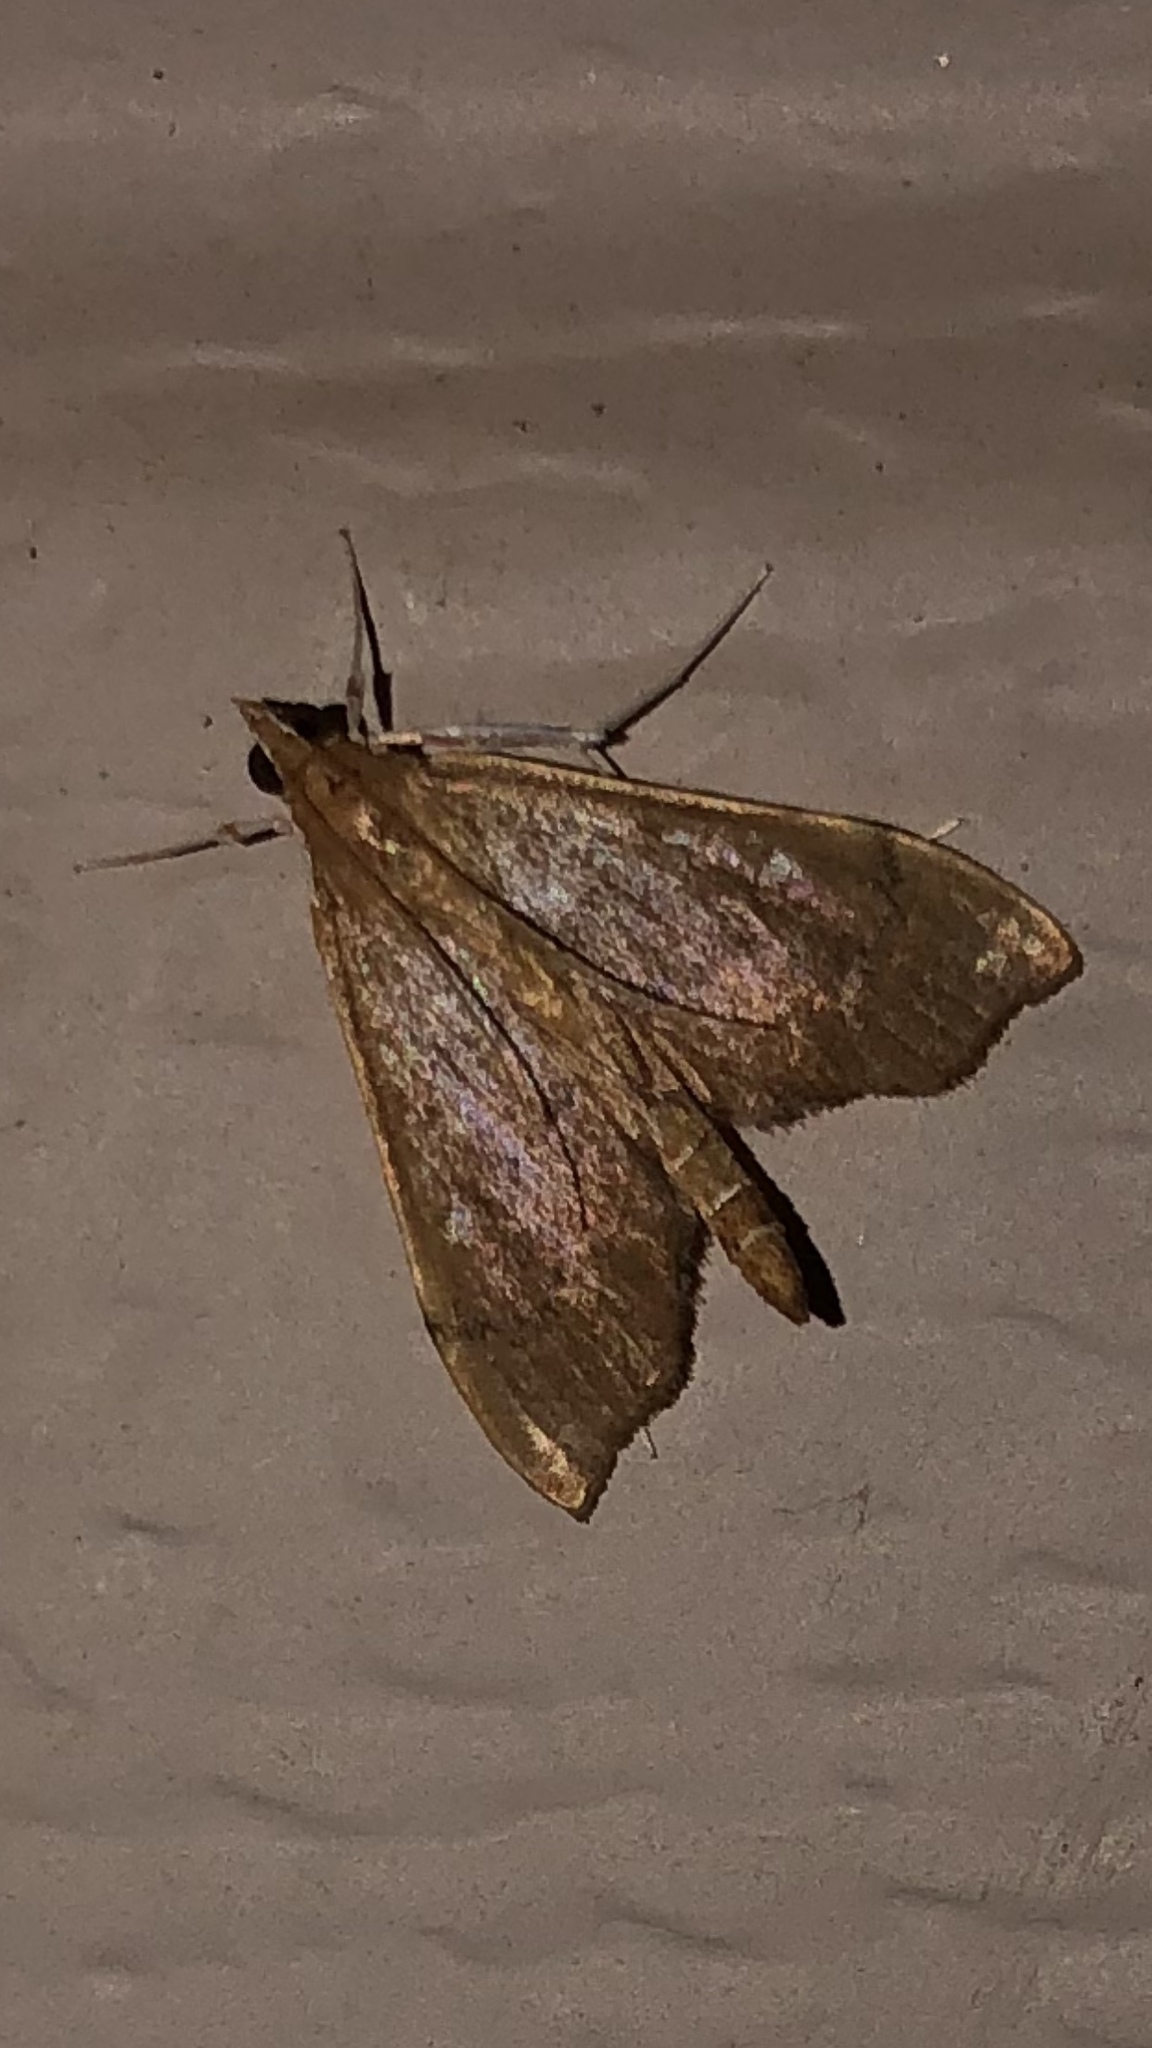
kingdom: Animalia
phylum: Arthropoda
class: Insecta
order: Lepidoptera
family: Crambidae
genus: Sericoplaga
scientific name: Sericoplaga externalis
